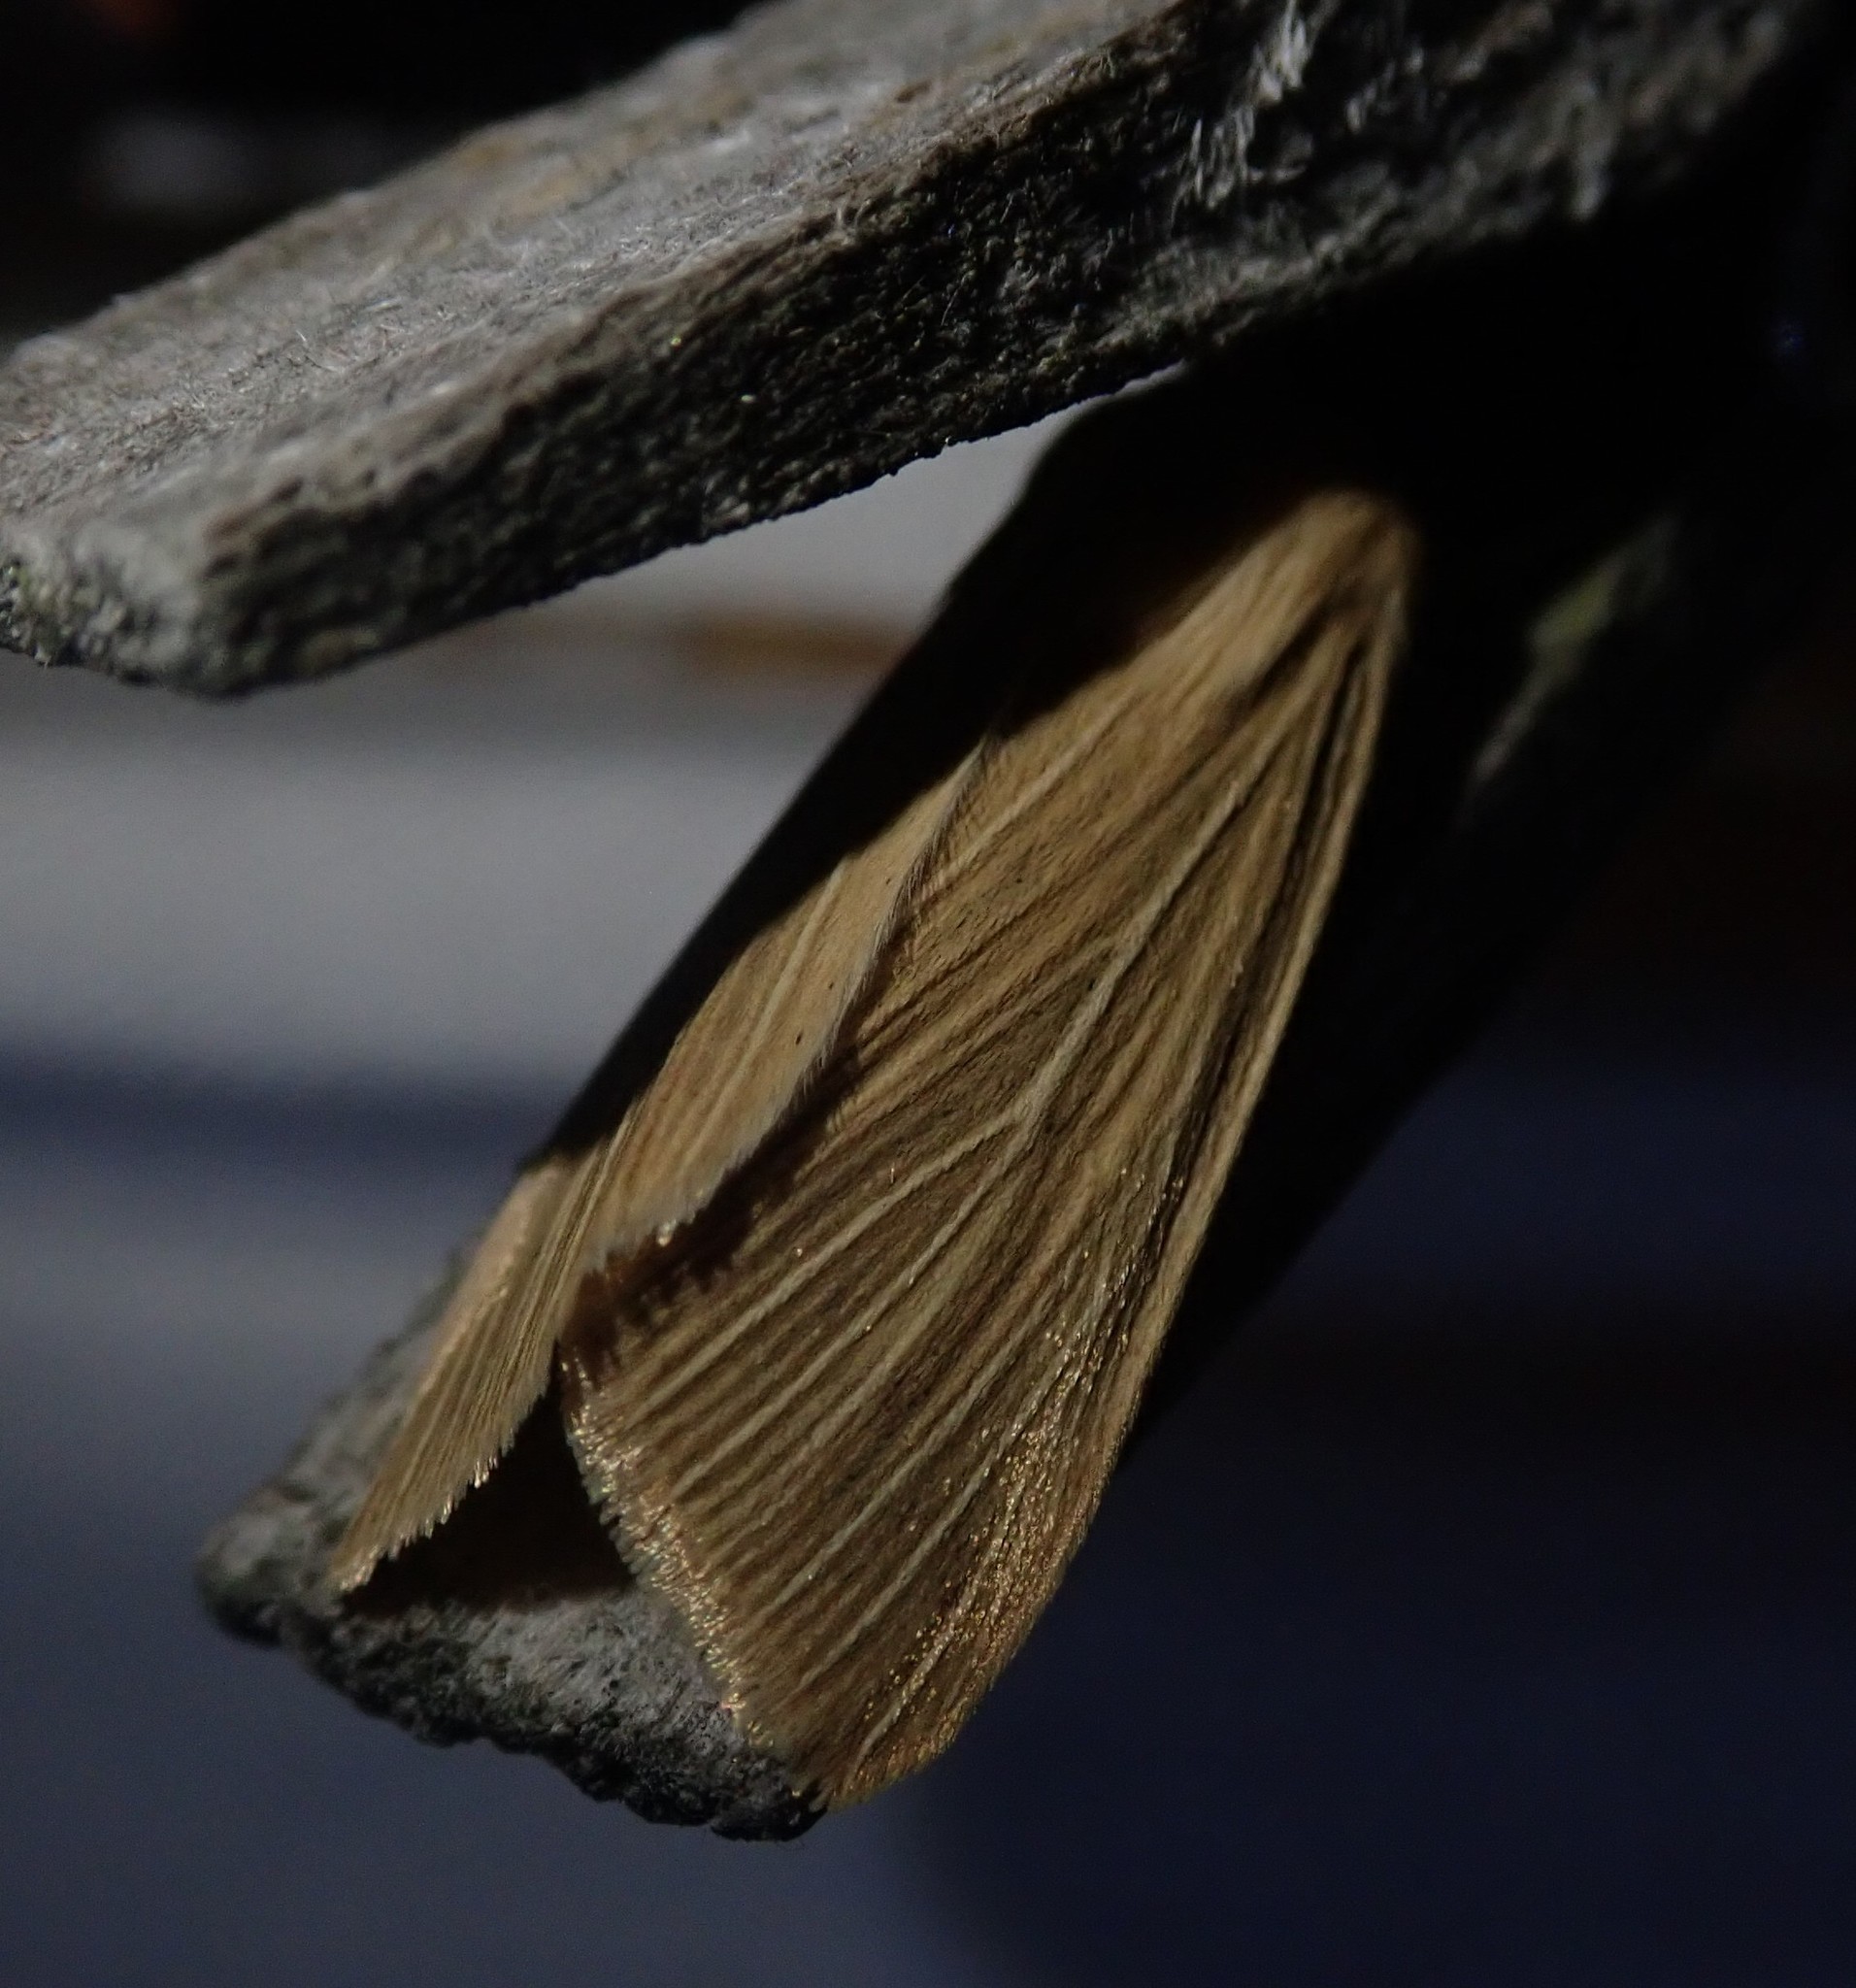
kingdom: Animalia
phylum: Arthropoda
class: Insecta
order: Lepidoptera
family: Noctuidae
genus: Mythimna
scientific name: Mythimna pallens
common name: Common wainscot
